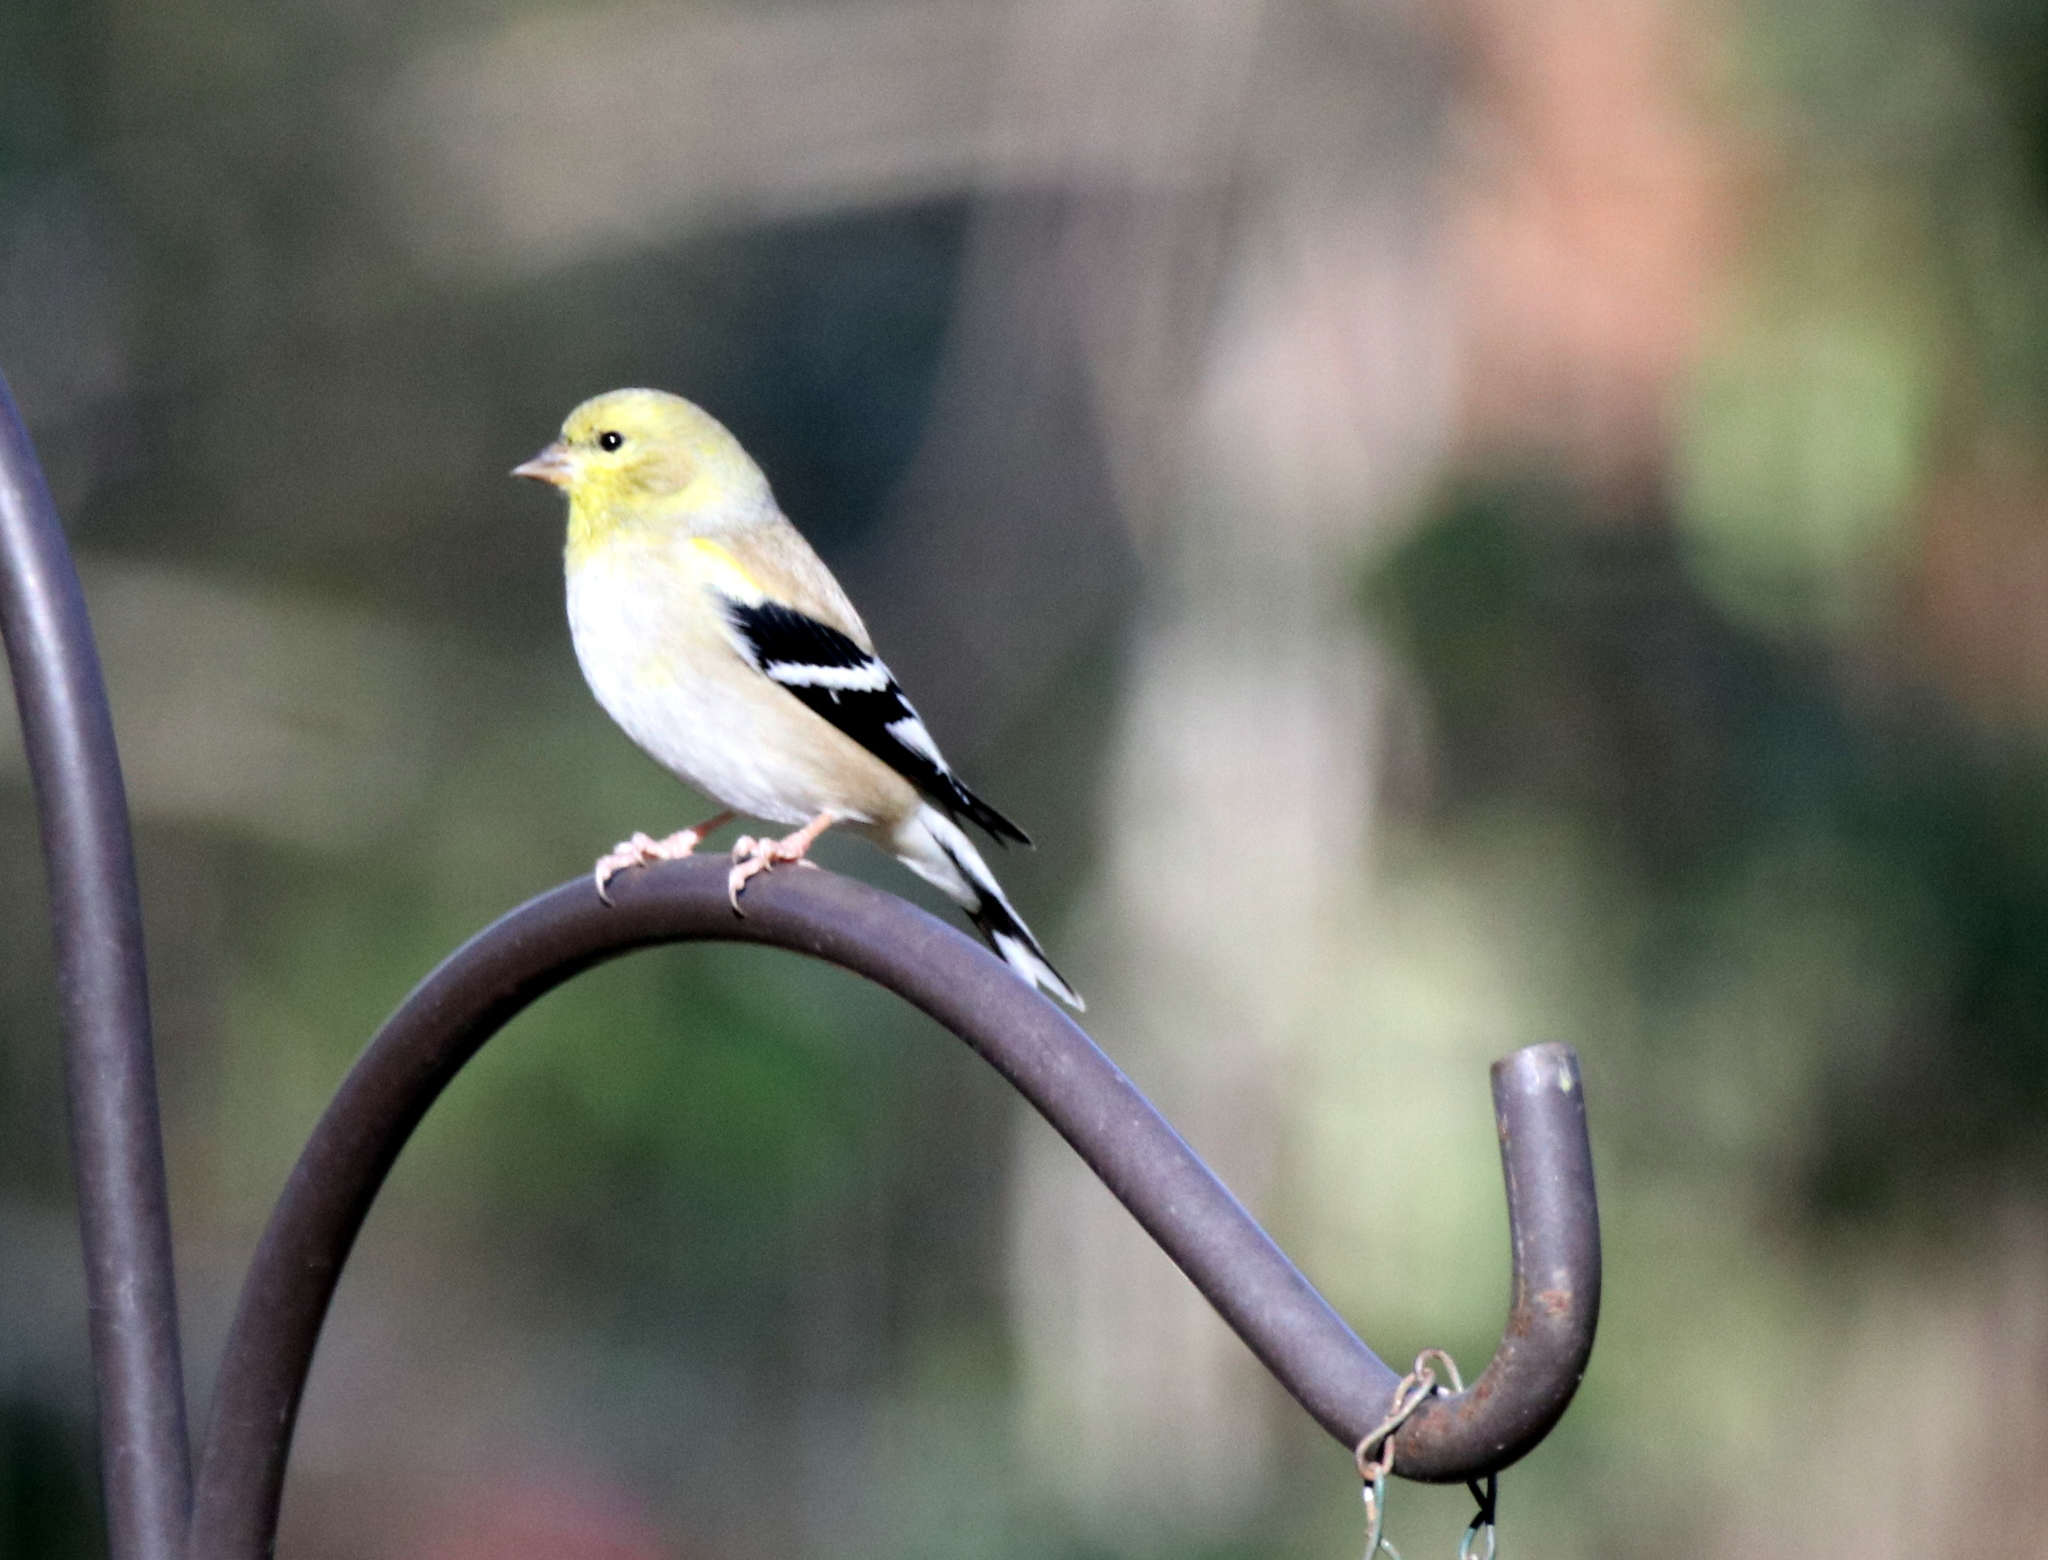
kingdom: Animalia
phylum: Chordata
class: Aves
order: Passeriformes
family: Fringillidae
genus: Spinus
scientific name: Spinus tristis
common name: American goldfinch
